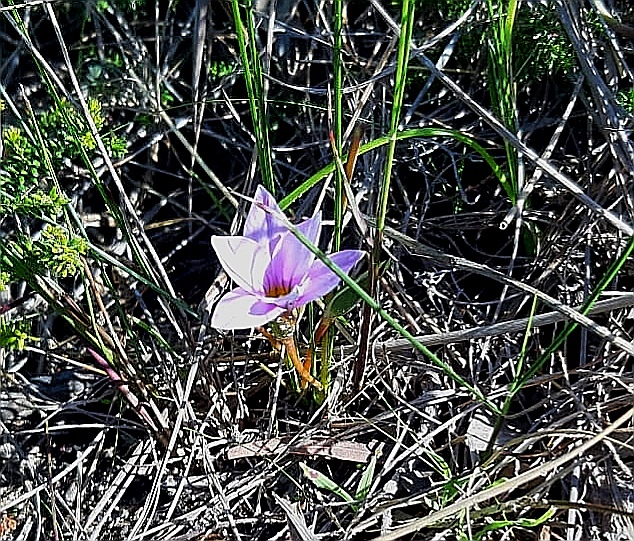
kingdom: Plantae
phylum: Tracheophyta
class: Liliopsida
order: Asparagales
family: Iridaceae
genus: Romulea
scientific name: Romulea rosea
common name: Oniongrass
